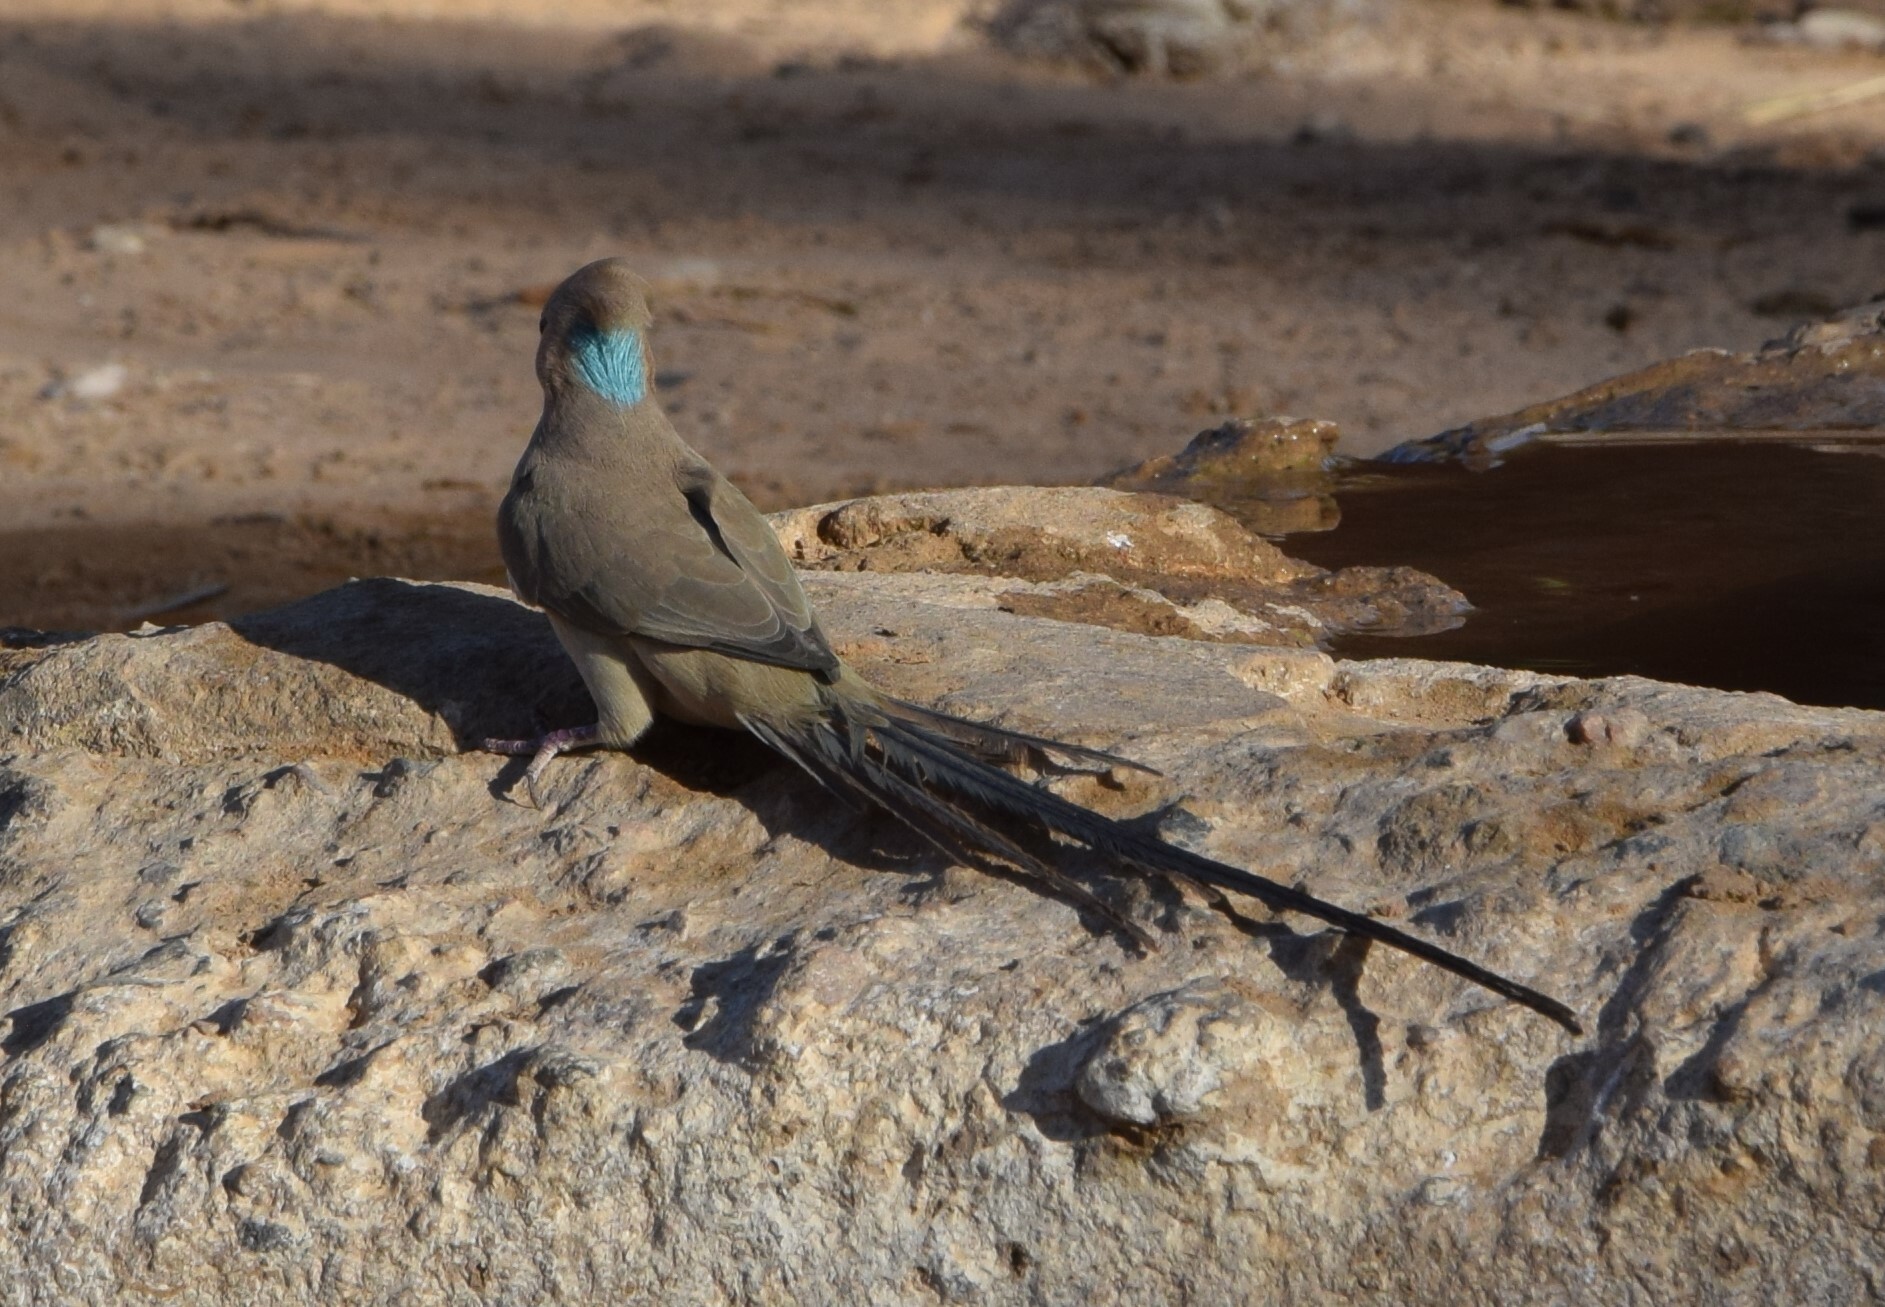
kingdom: Animalia
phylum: Chordata
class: Aves
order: Coliiformes
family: Coliidae
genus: Urocolius
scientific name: Urocolius macrourus
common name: Blue-naped mousebird
